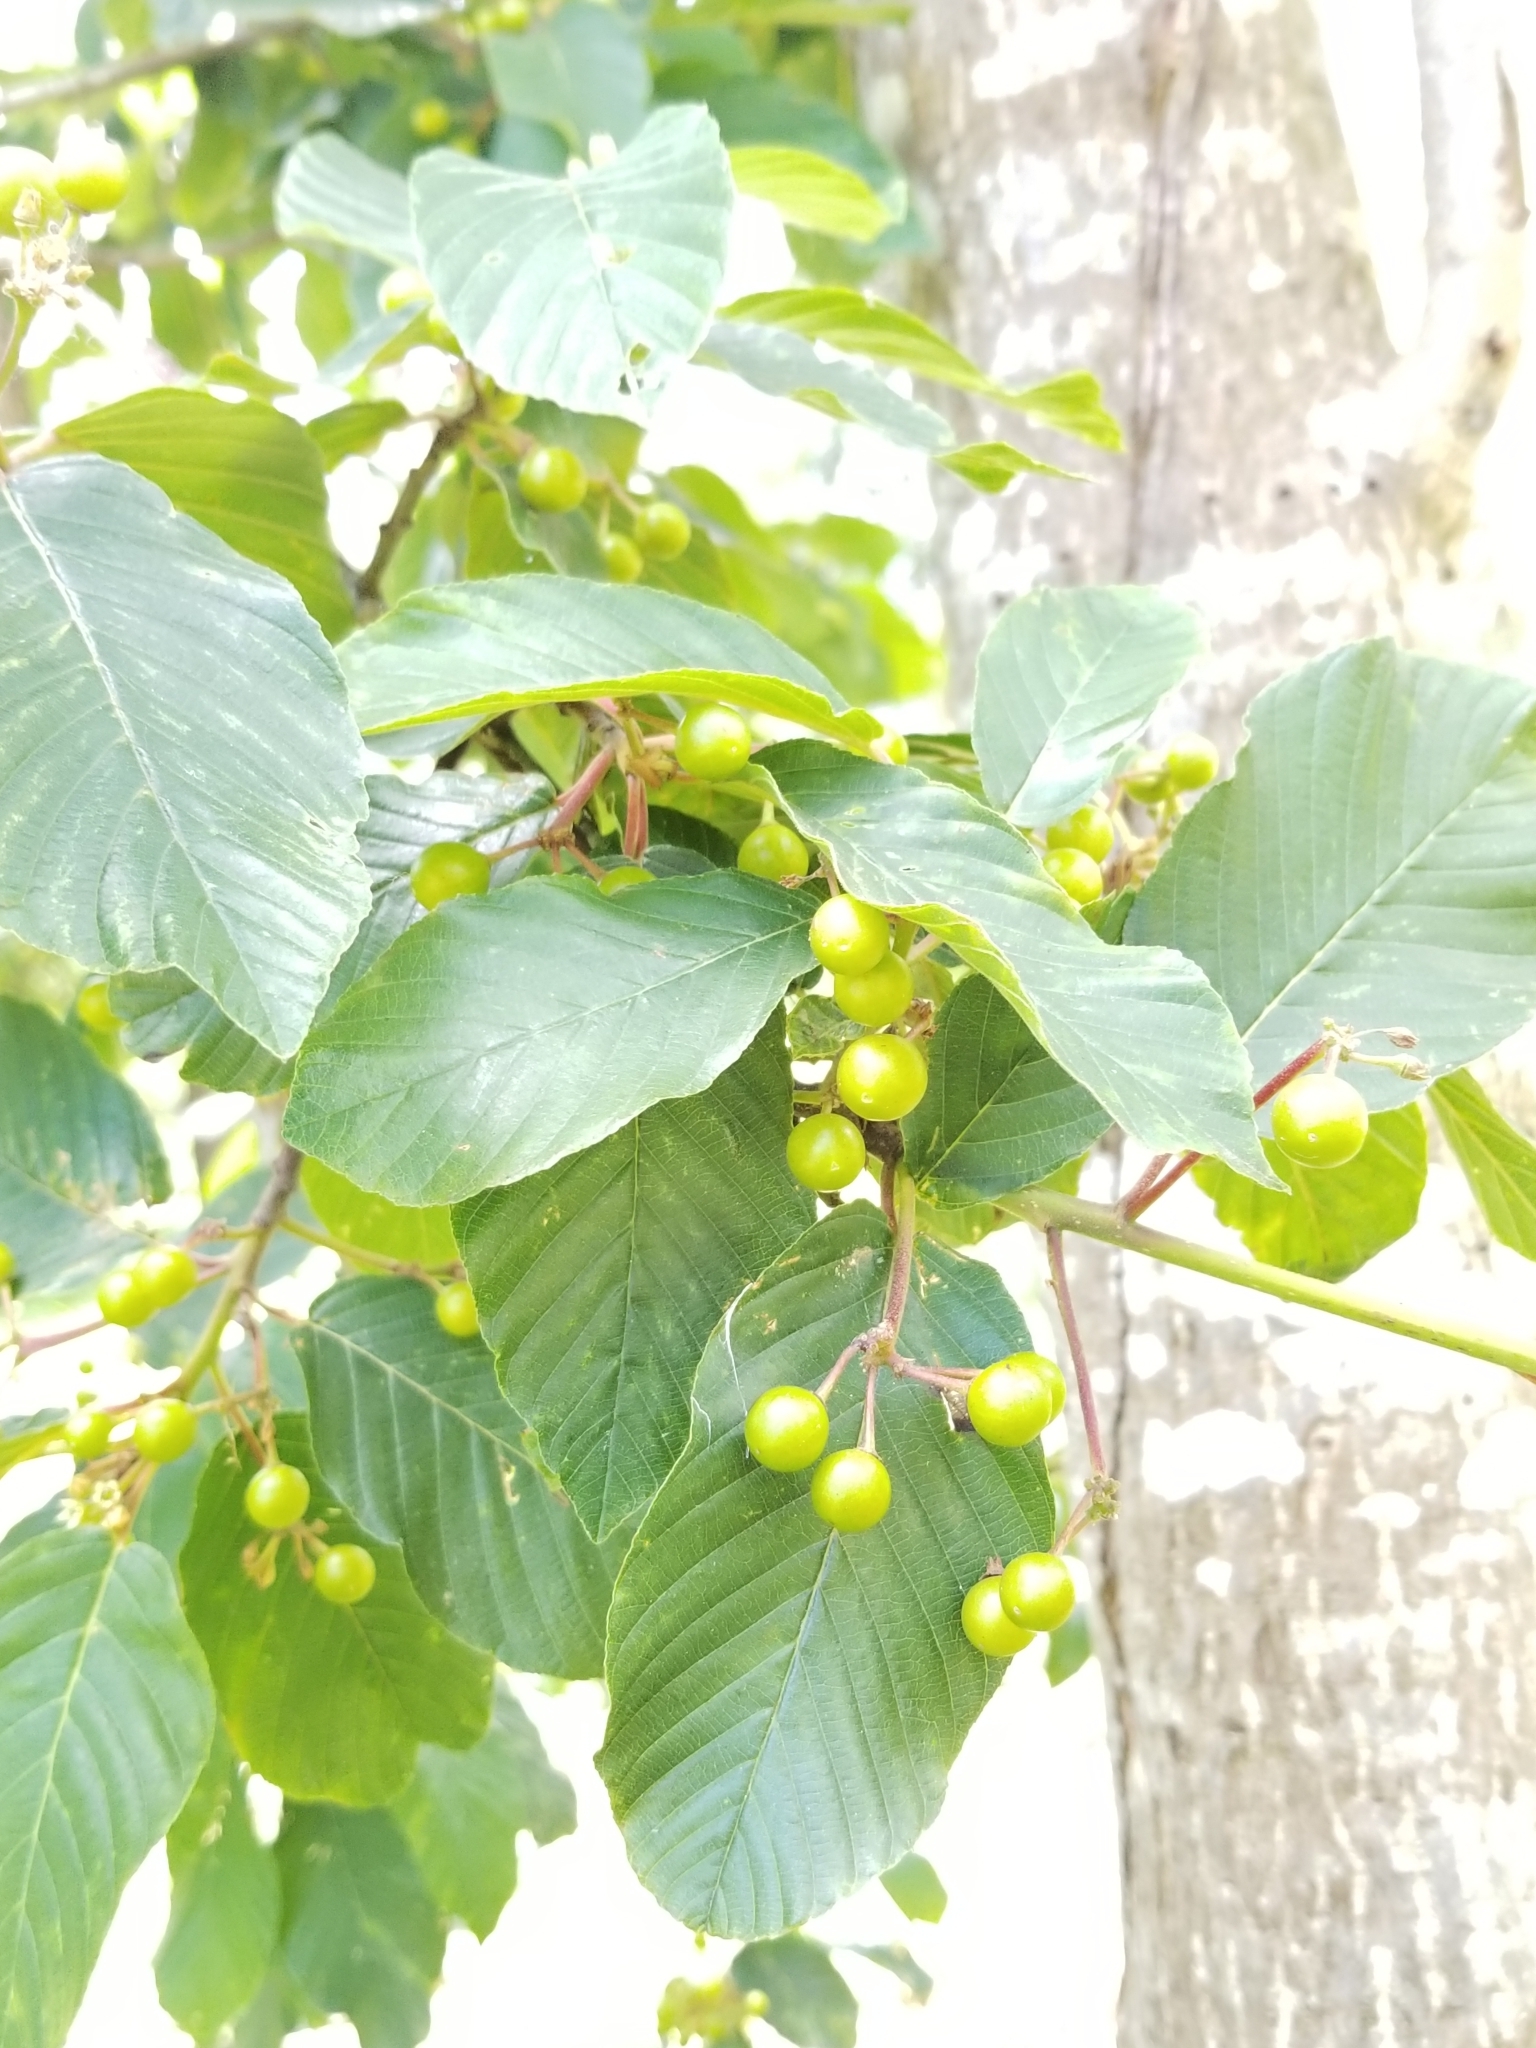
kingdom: Plantae
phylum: Tracheophyta
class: Magnoliopsida
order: Rosales
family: Rhamnaceae
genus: Frangula
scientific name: Frangula purshiana
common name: Cascara buckthorn
